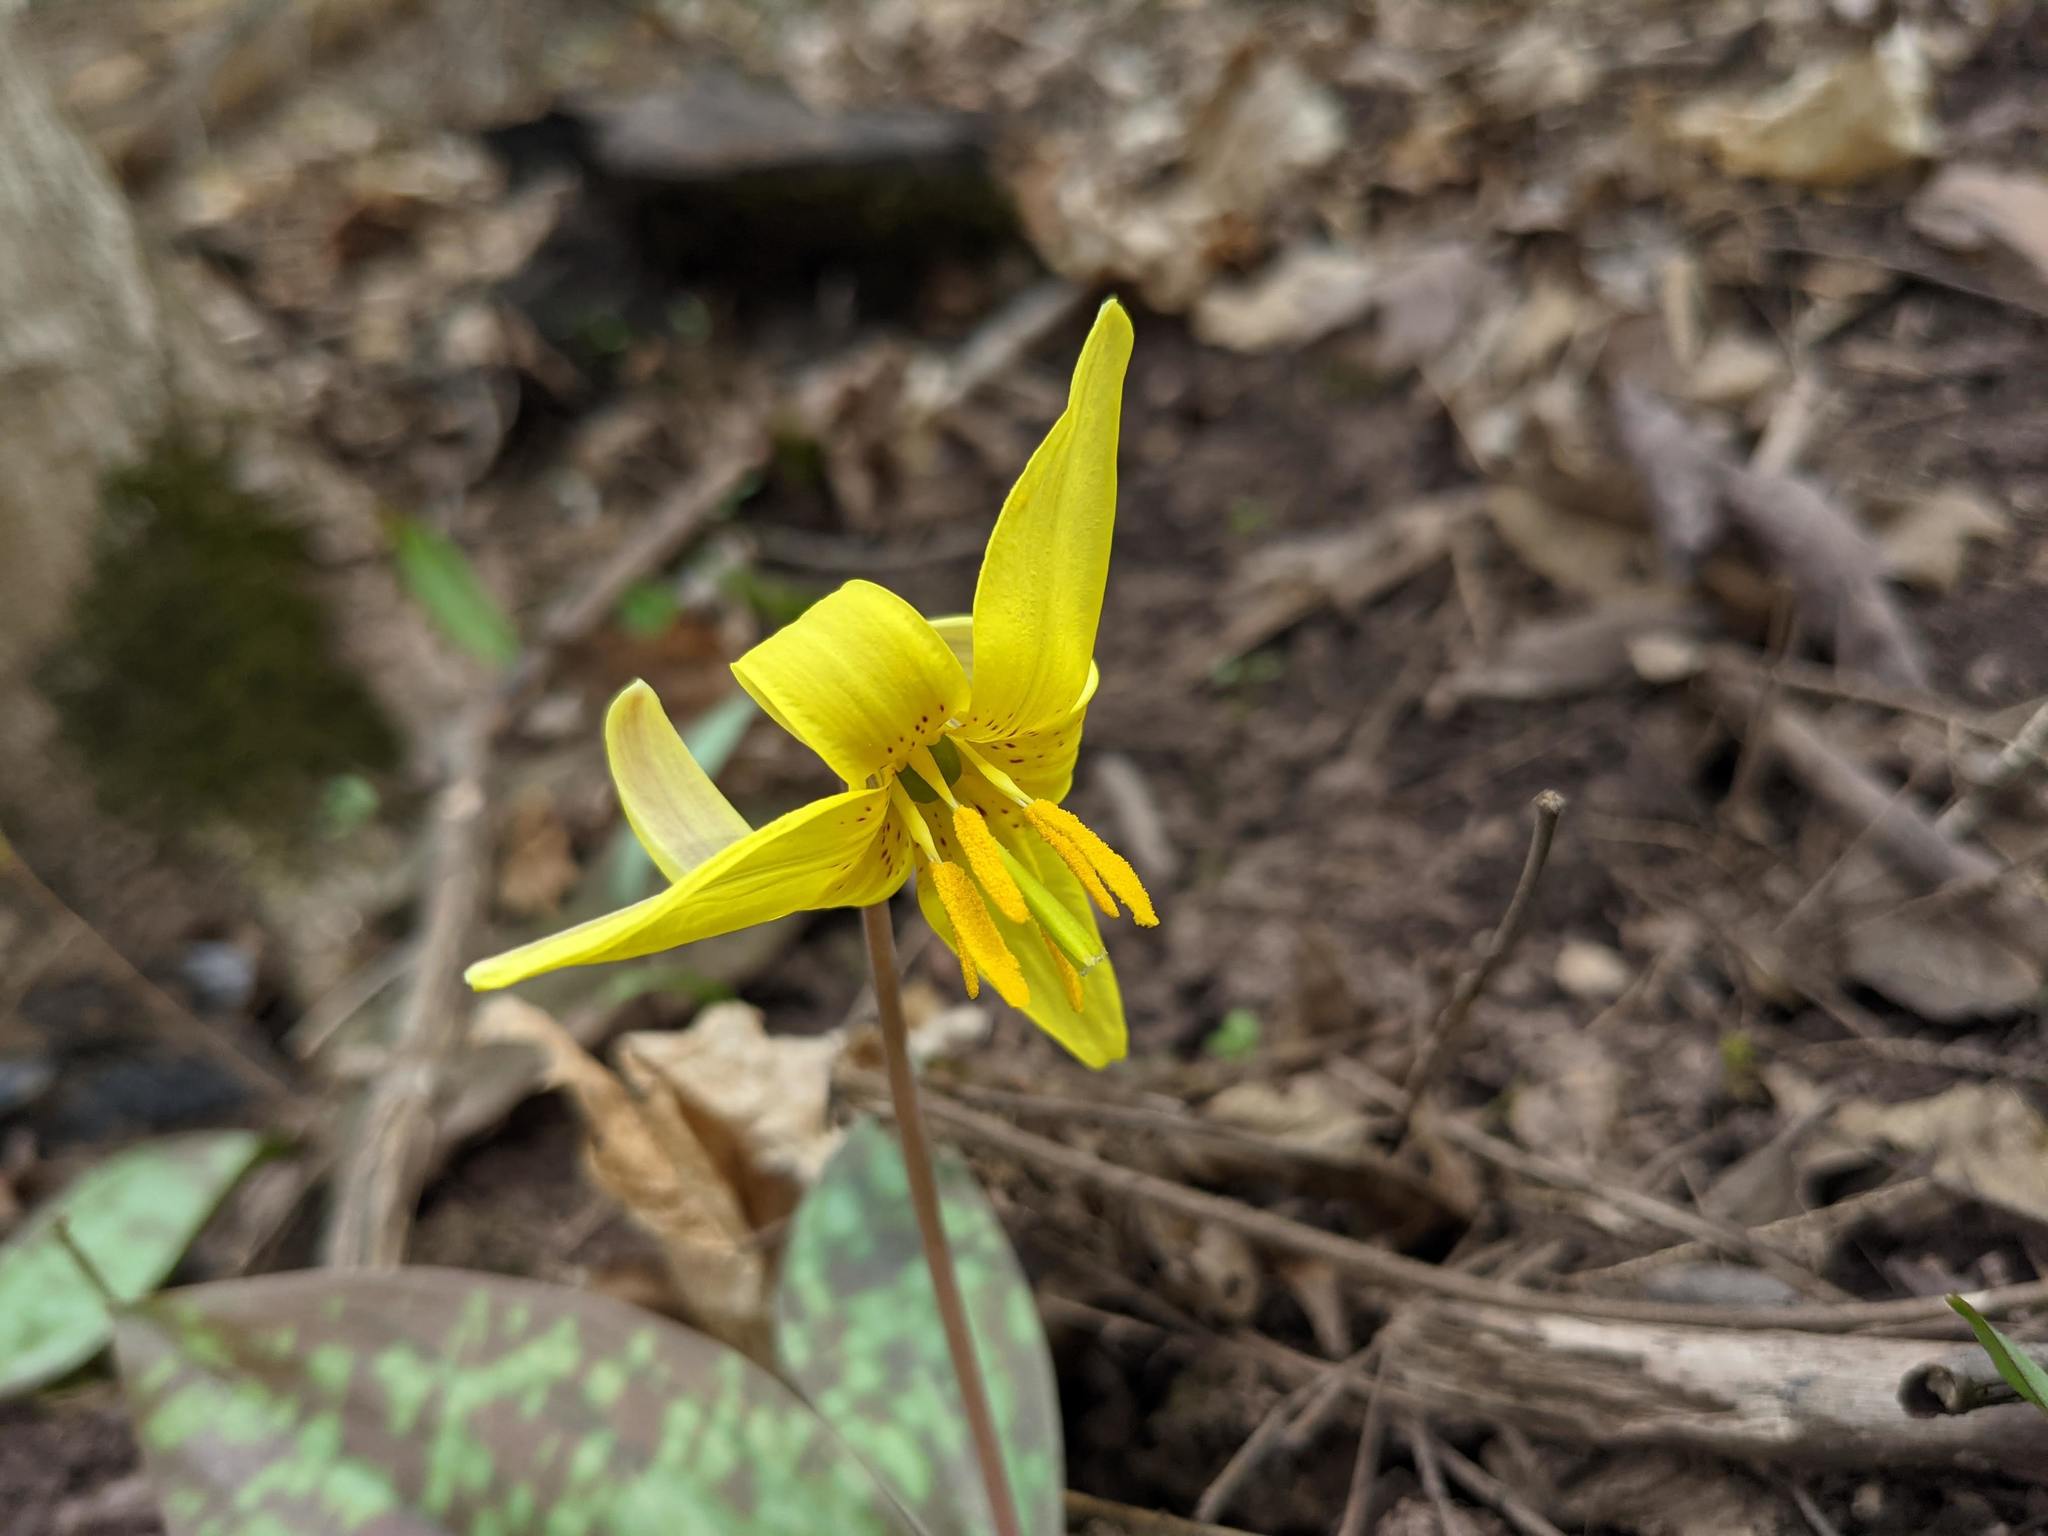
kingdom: Plantae
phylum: Tracheophyta
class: Liliopsida
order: Liliales
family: Liliaceae
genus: Erythronium
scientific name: Erythronium americanum
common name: Yellow adder's-tongue
